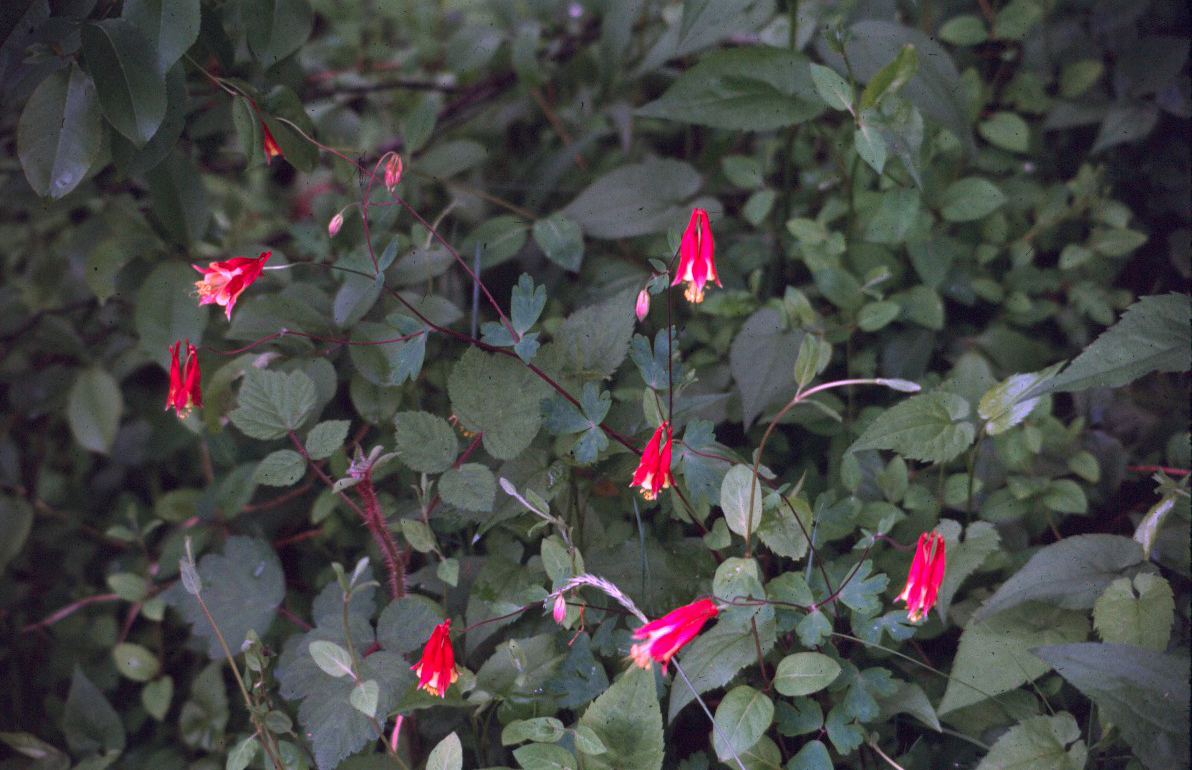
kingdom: Plantae
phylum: Tracheophyta
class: Magnoliopsida
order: Ranunculales
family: Ranunculaceae
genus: Aquilegia
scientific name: Aquilegia canadensis
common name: American columbine
